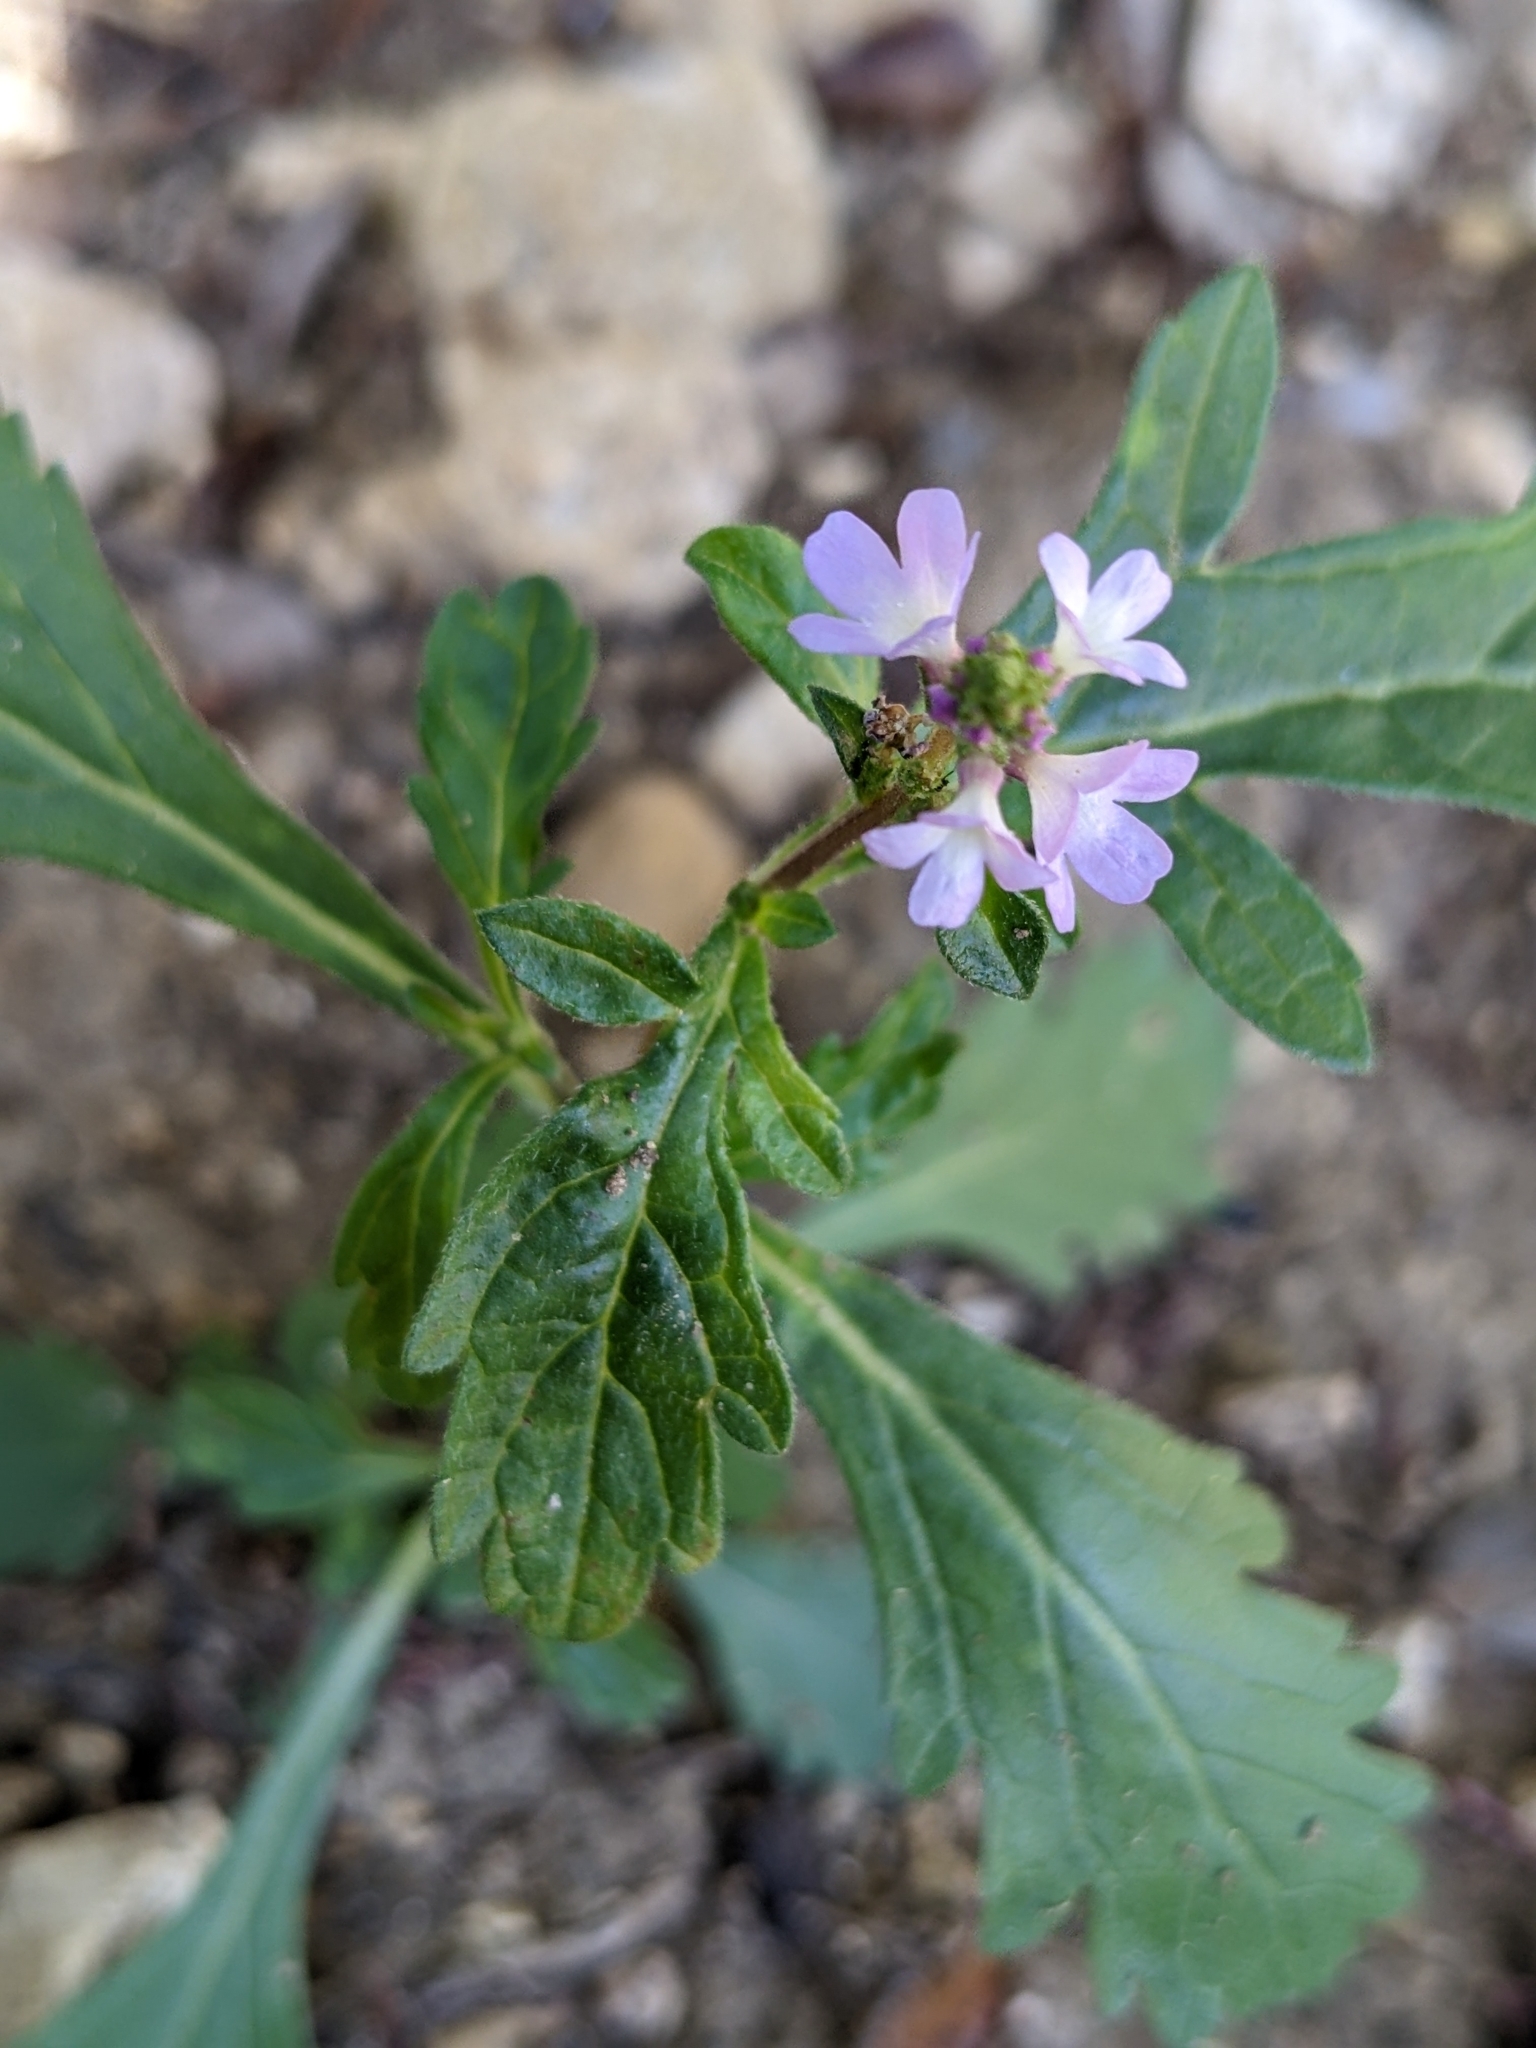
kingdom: Plantae
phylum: Tracheophyta
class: Magnoliopsida
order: Lamiales
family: Verbenaceae
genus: Verbena
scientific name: Verbena officinalis
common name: Vervain
